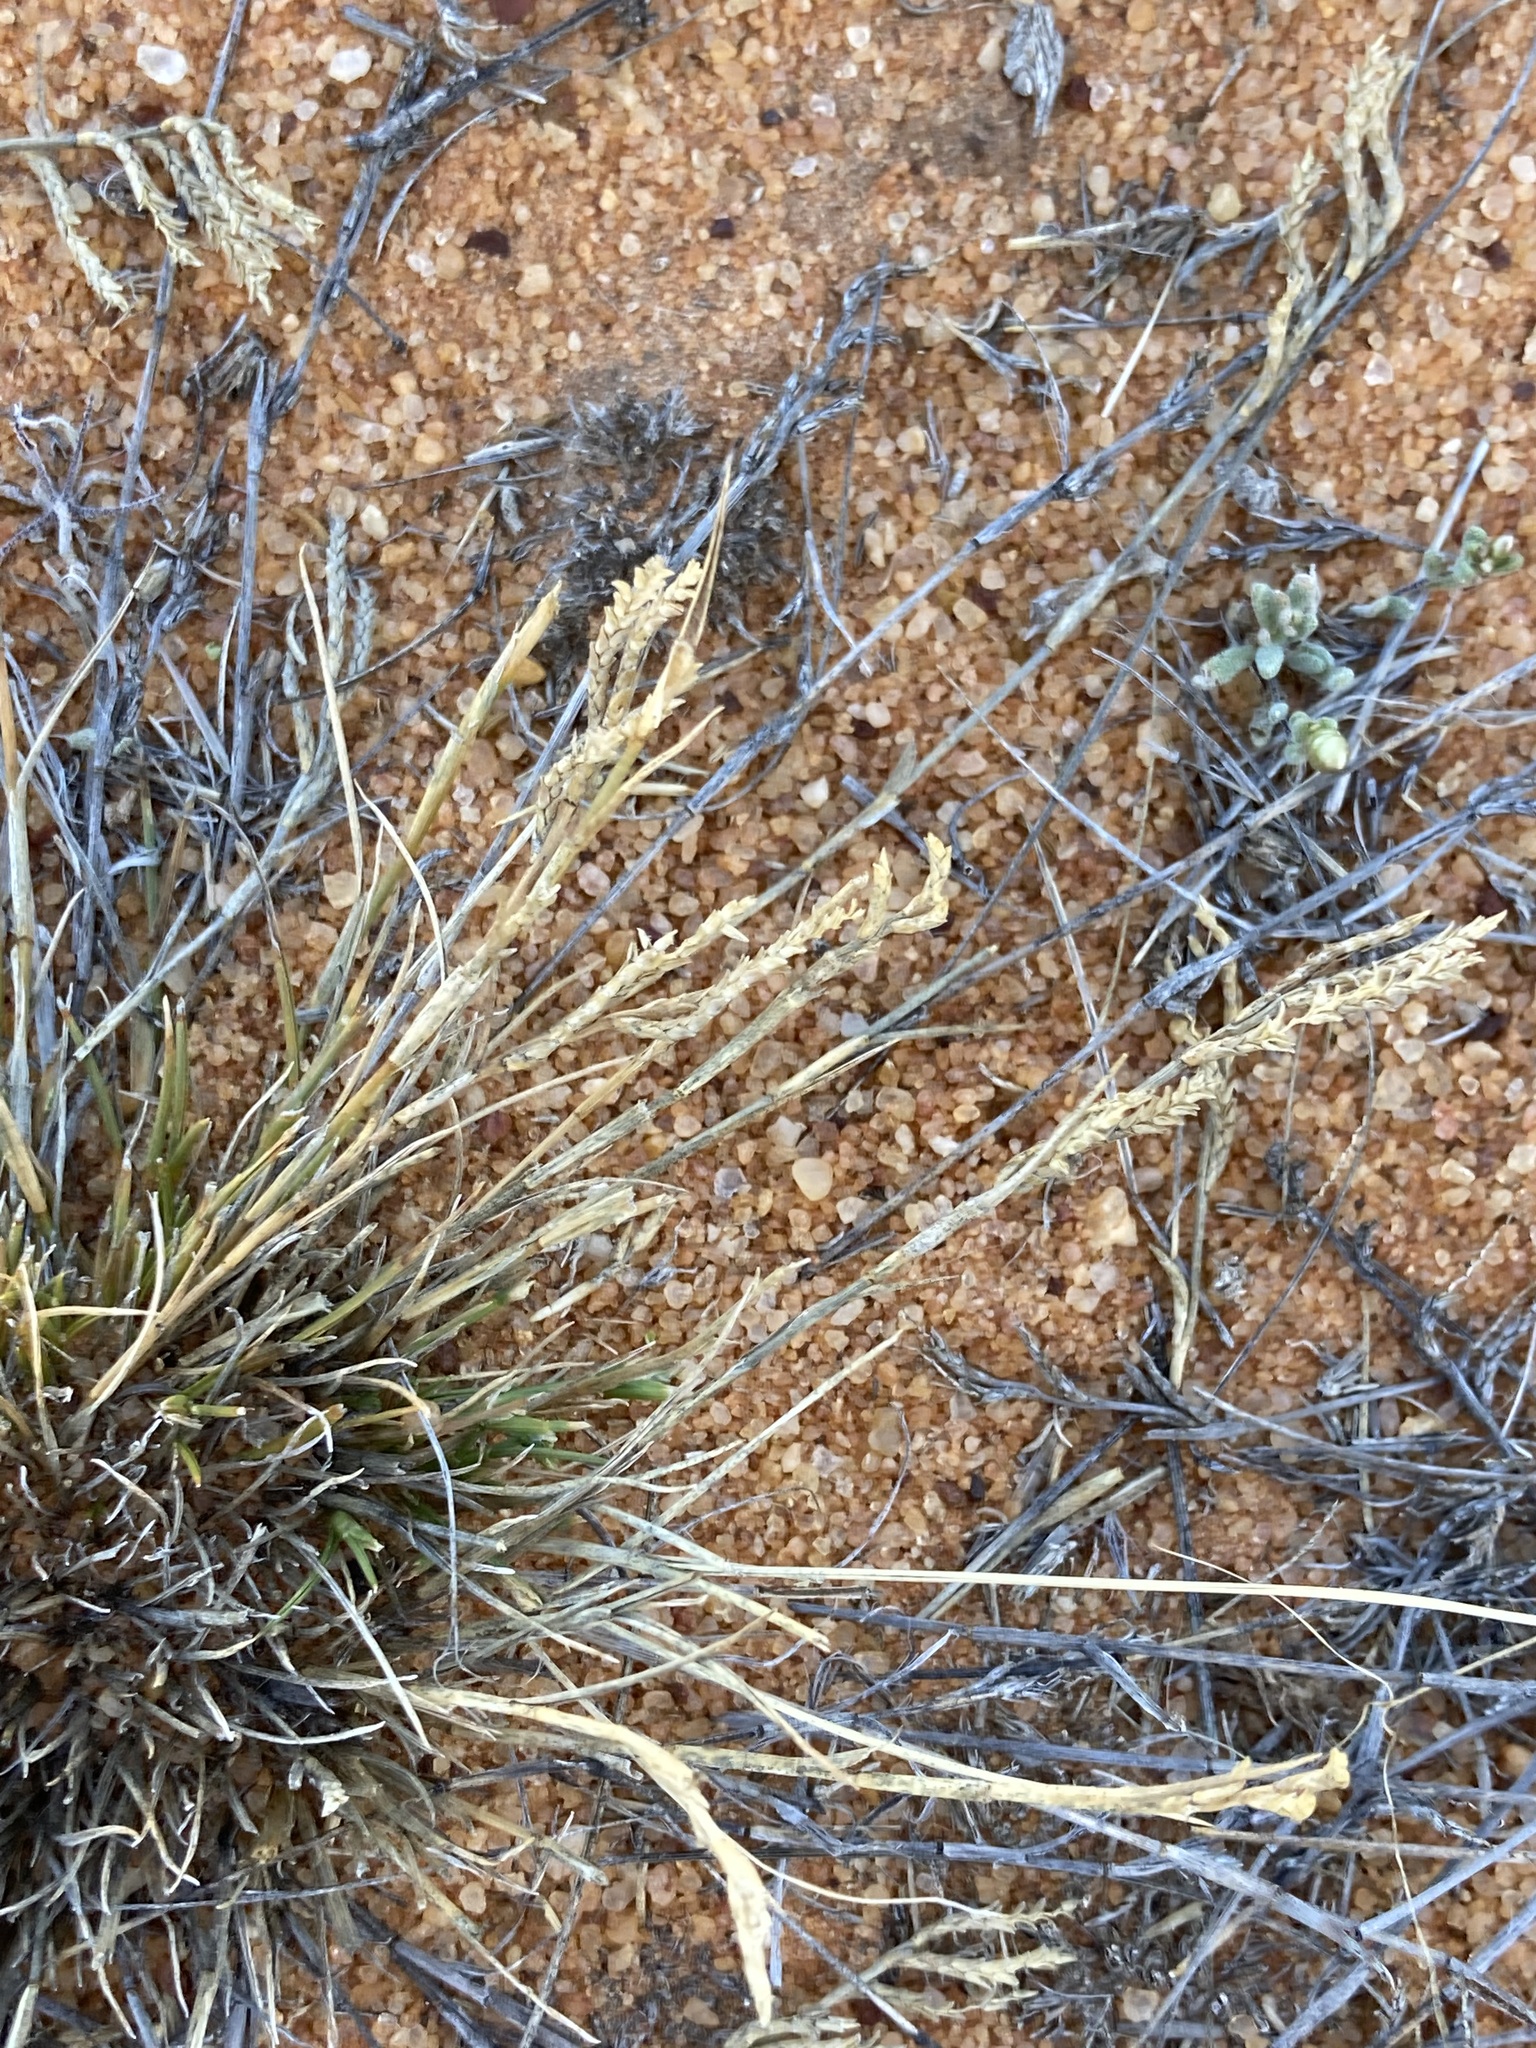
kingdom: Plantae
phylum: Tracheophyta
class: Liliopsida
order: Poales
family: Poaceae
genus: Eragrostis
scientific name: Eragrostis dielsii
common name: Lovegrass
